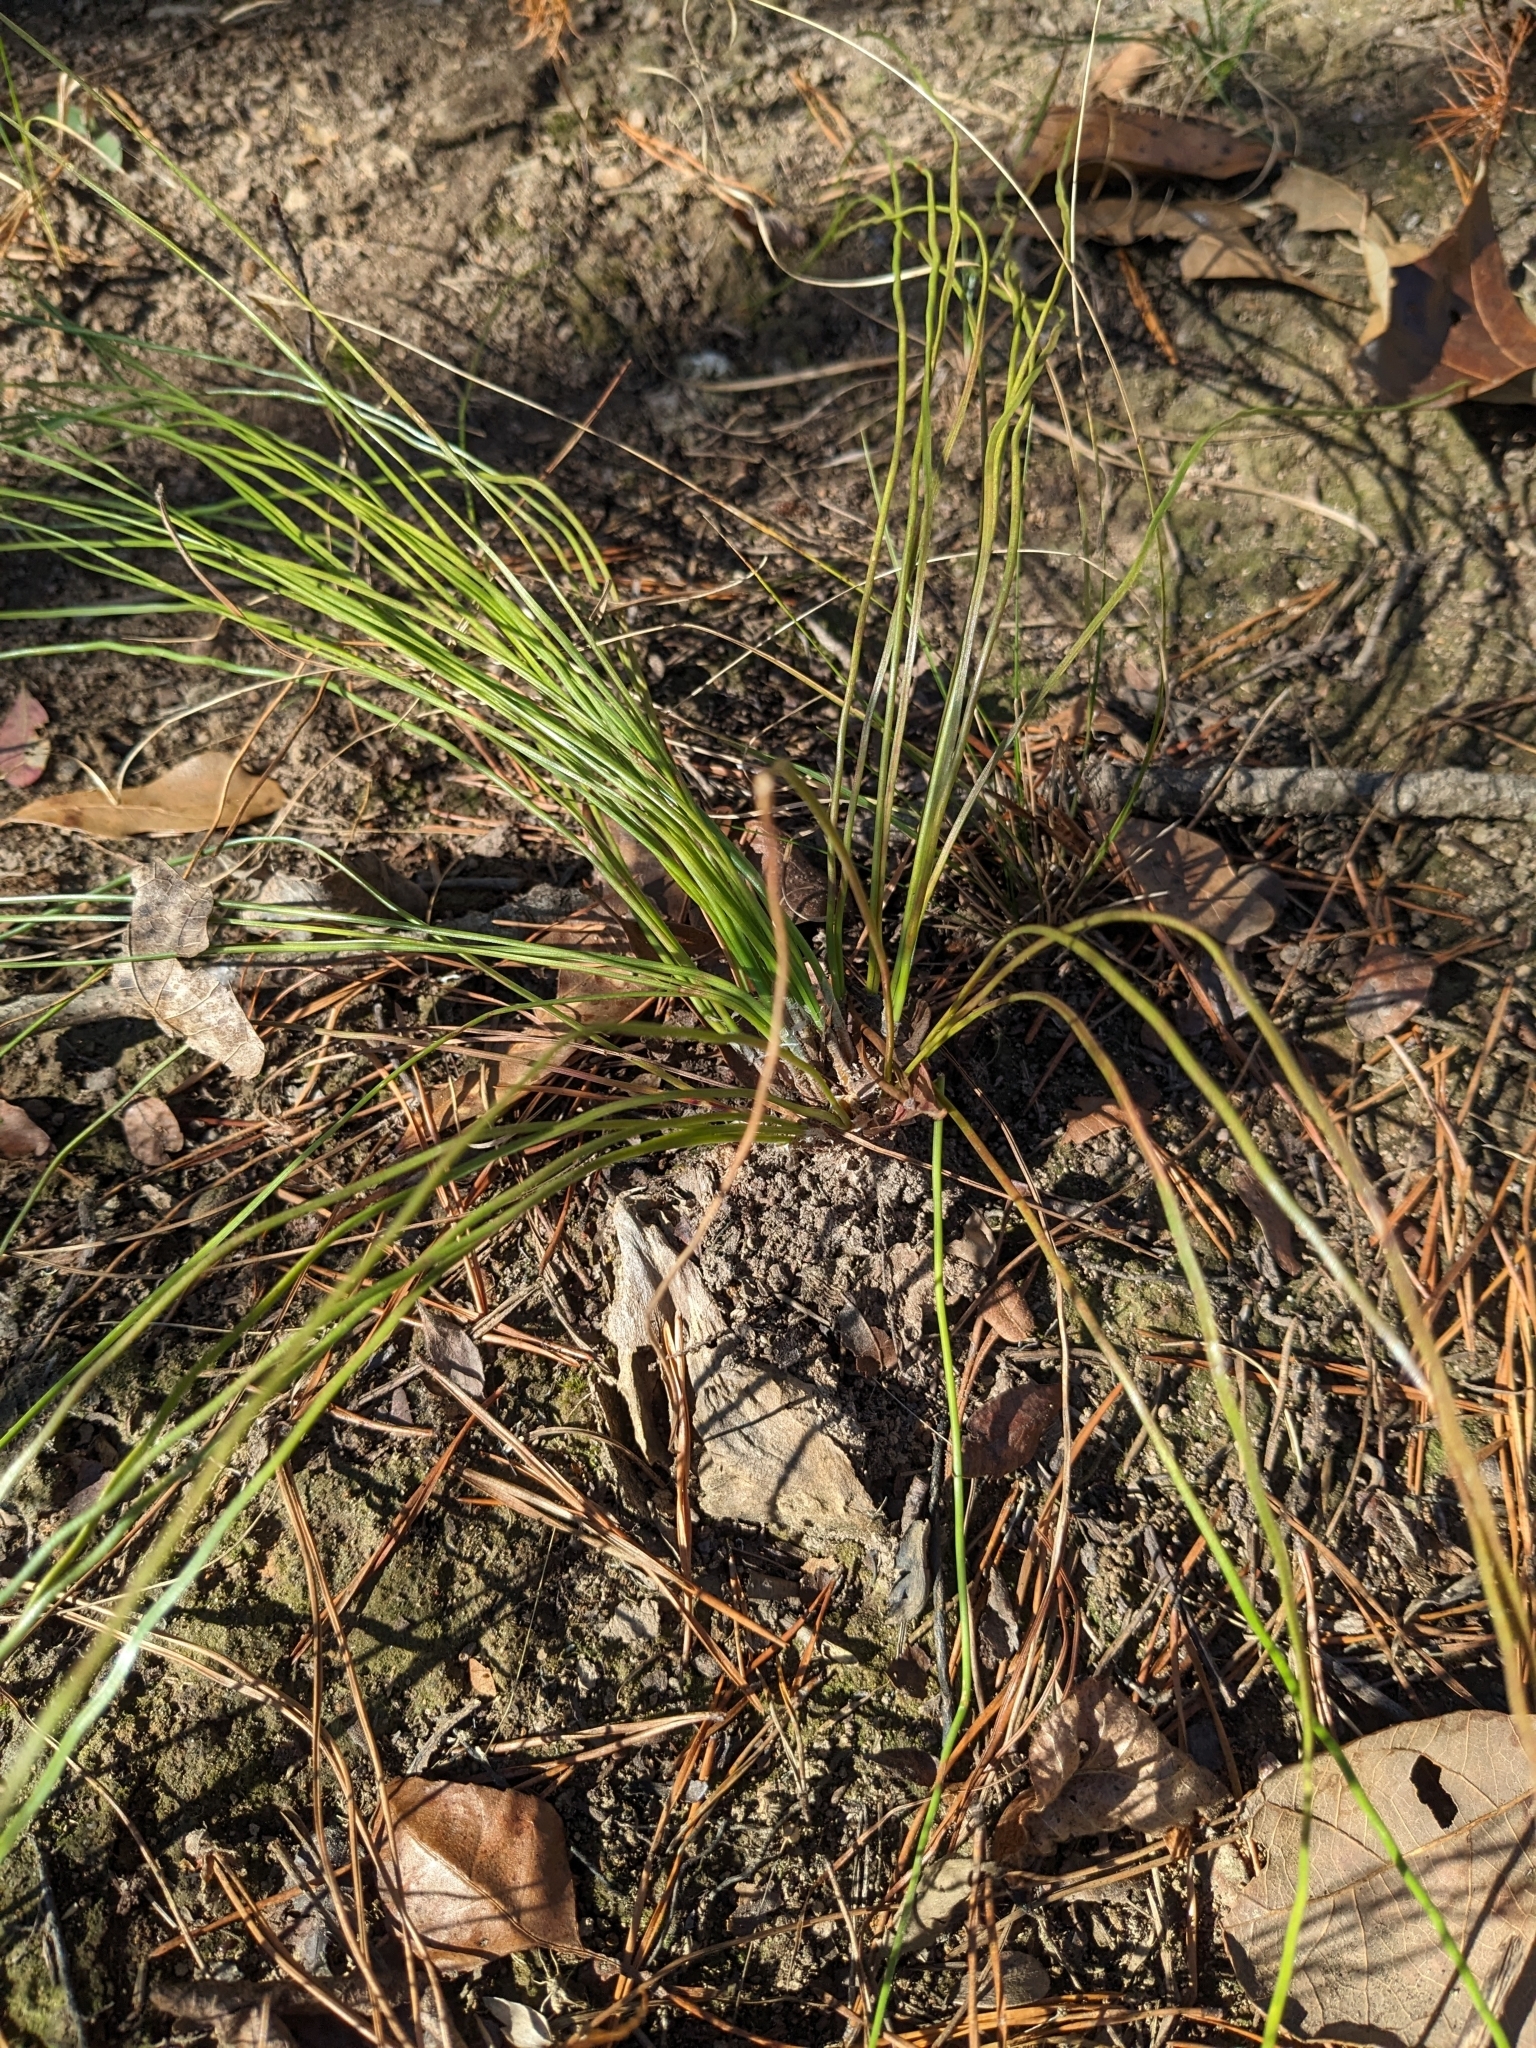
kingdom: Plantae
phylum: Tracheophyta
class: Pinopsida
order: Pinales
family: Pinaceae
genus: Pinus
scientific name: Pinus palustris
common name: Longleaf pine
